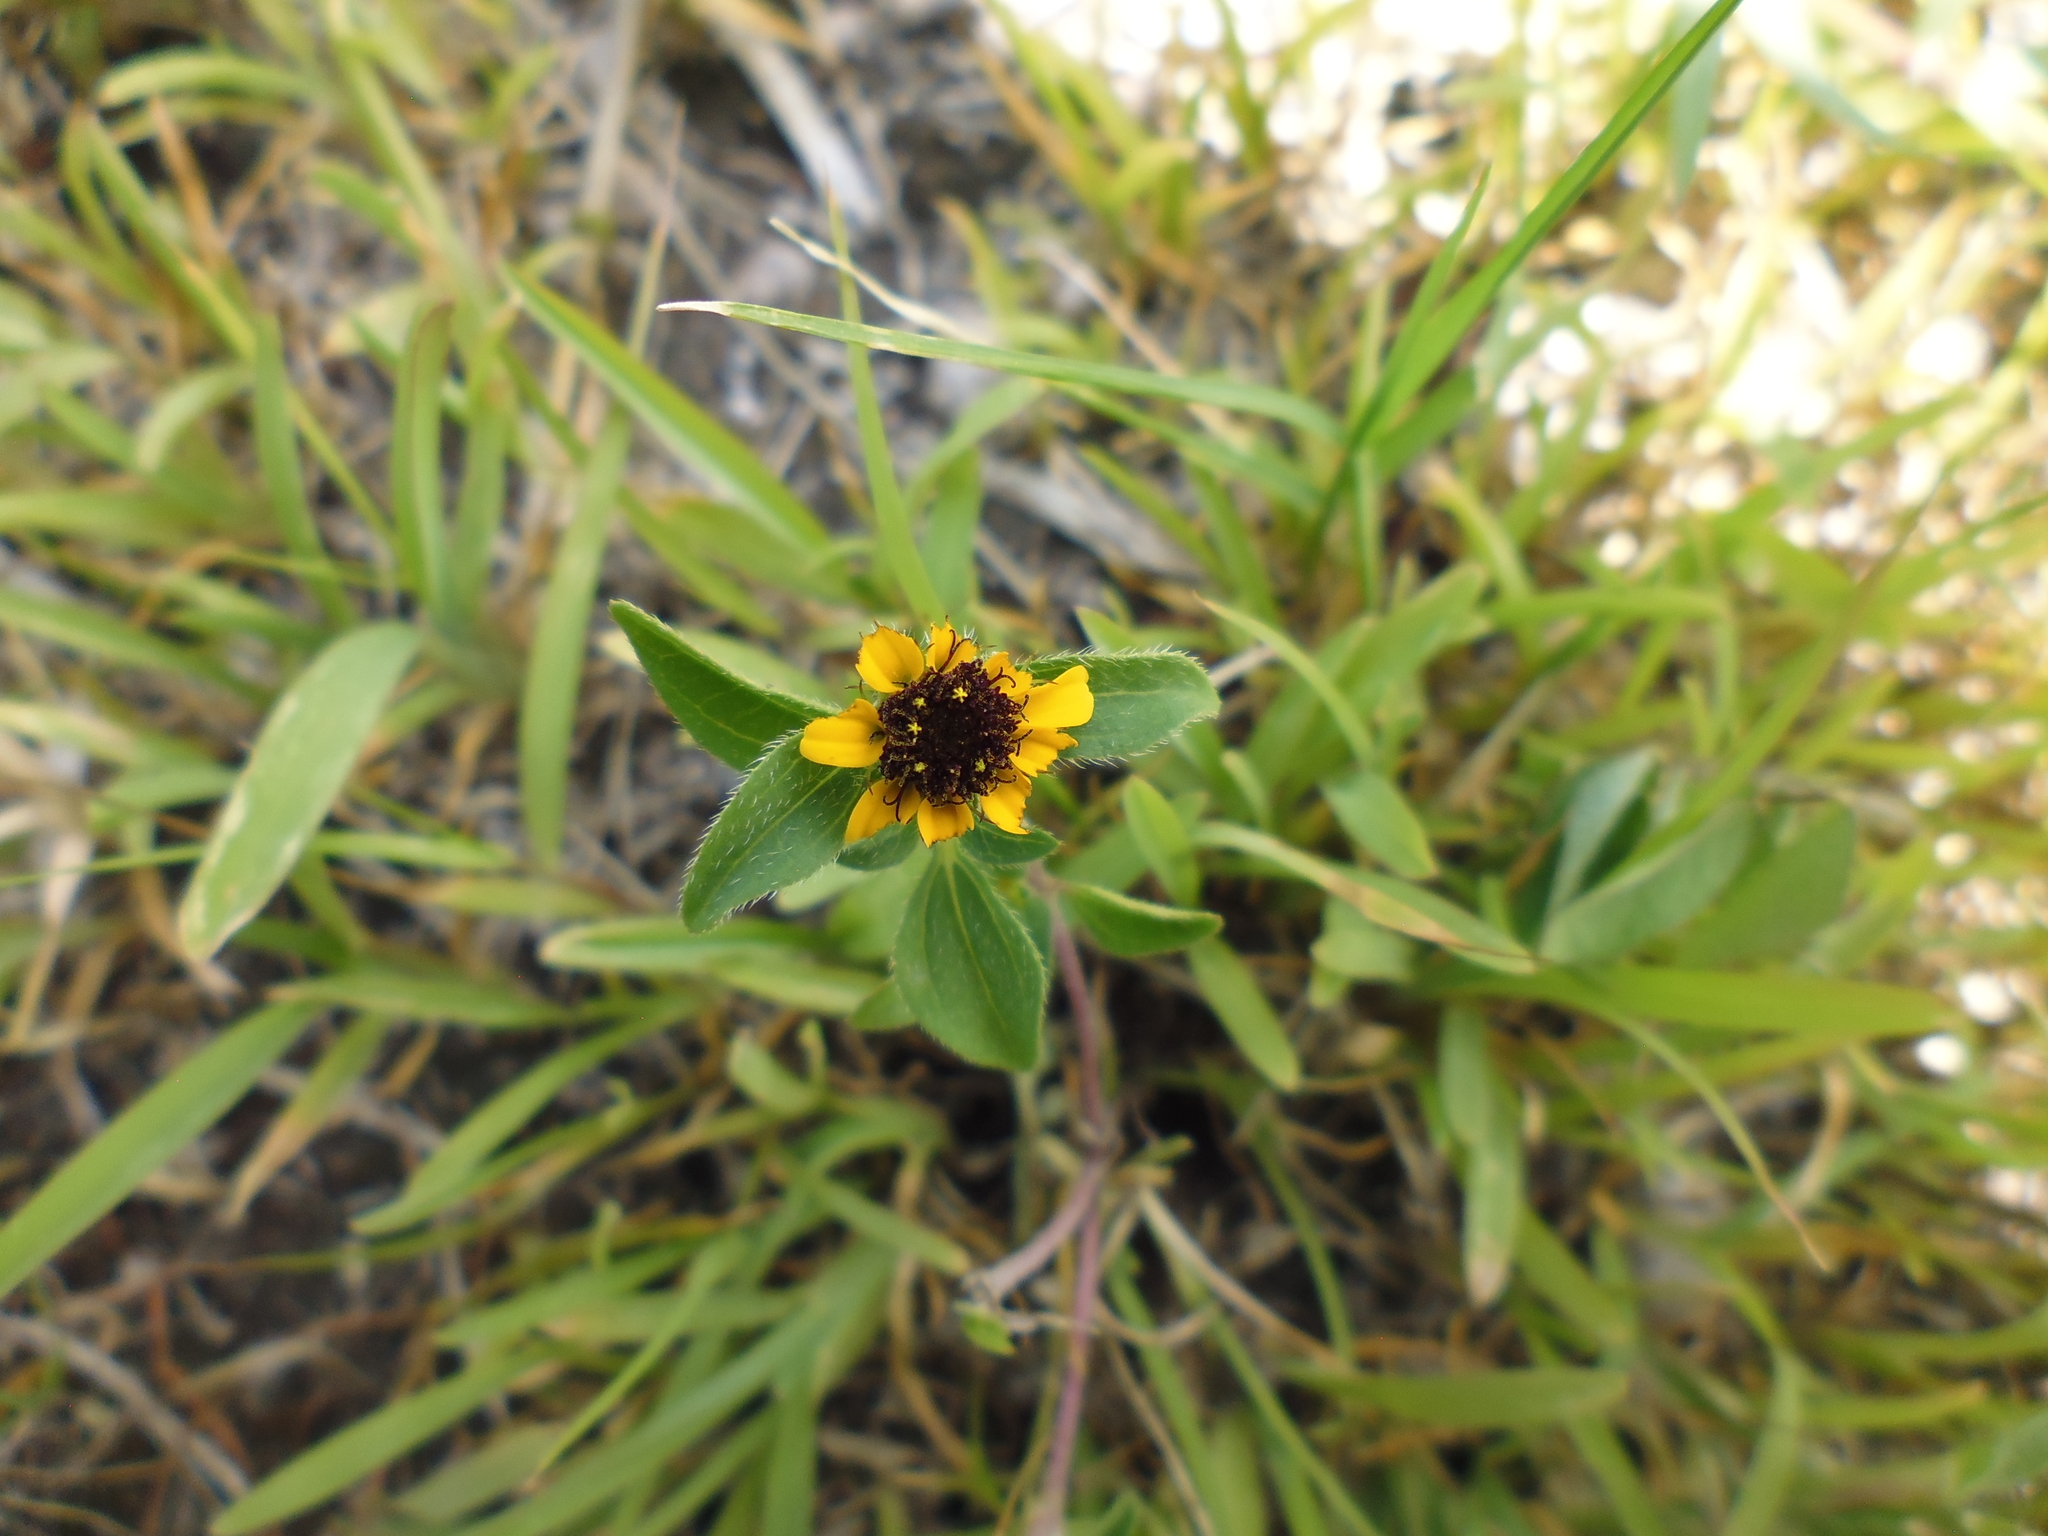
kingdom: Plantae
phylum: Tracheophyta
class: Magnoliopsida
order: Asterales
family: Asteraceae
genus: Sanvitalia
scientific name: Sanvitalia procumbens
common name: Mexican creeping zinnia
